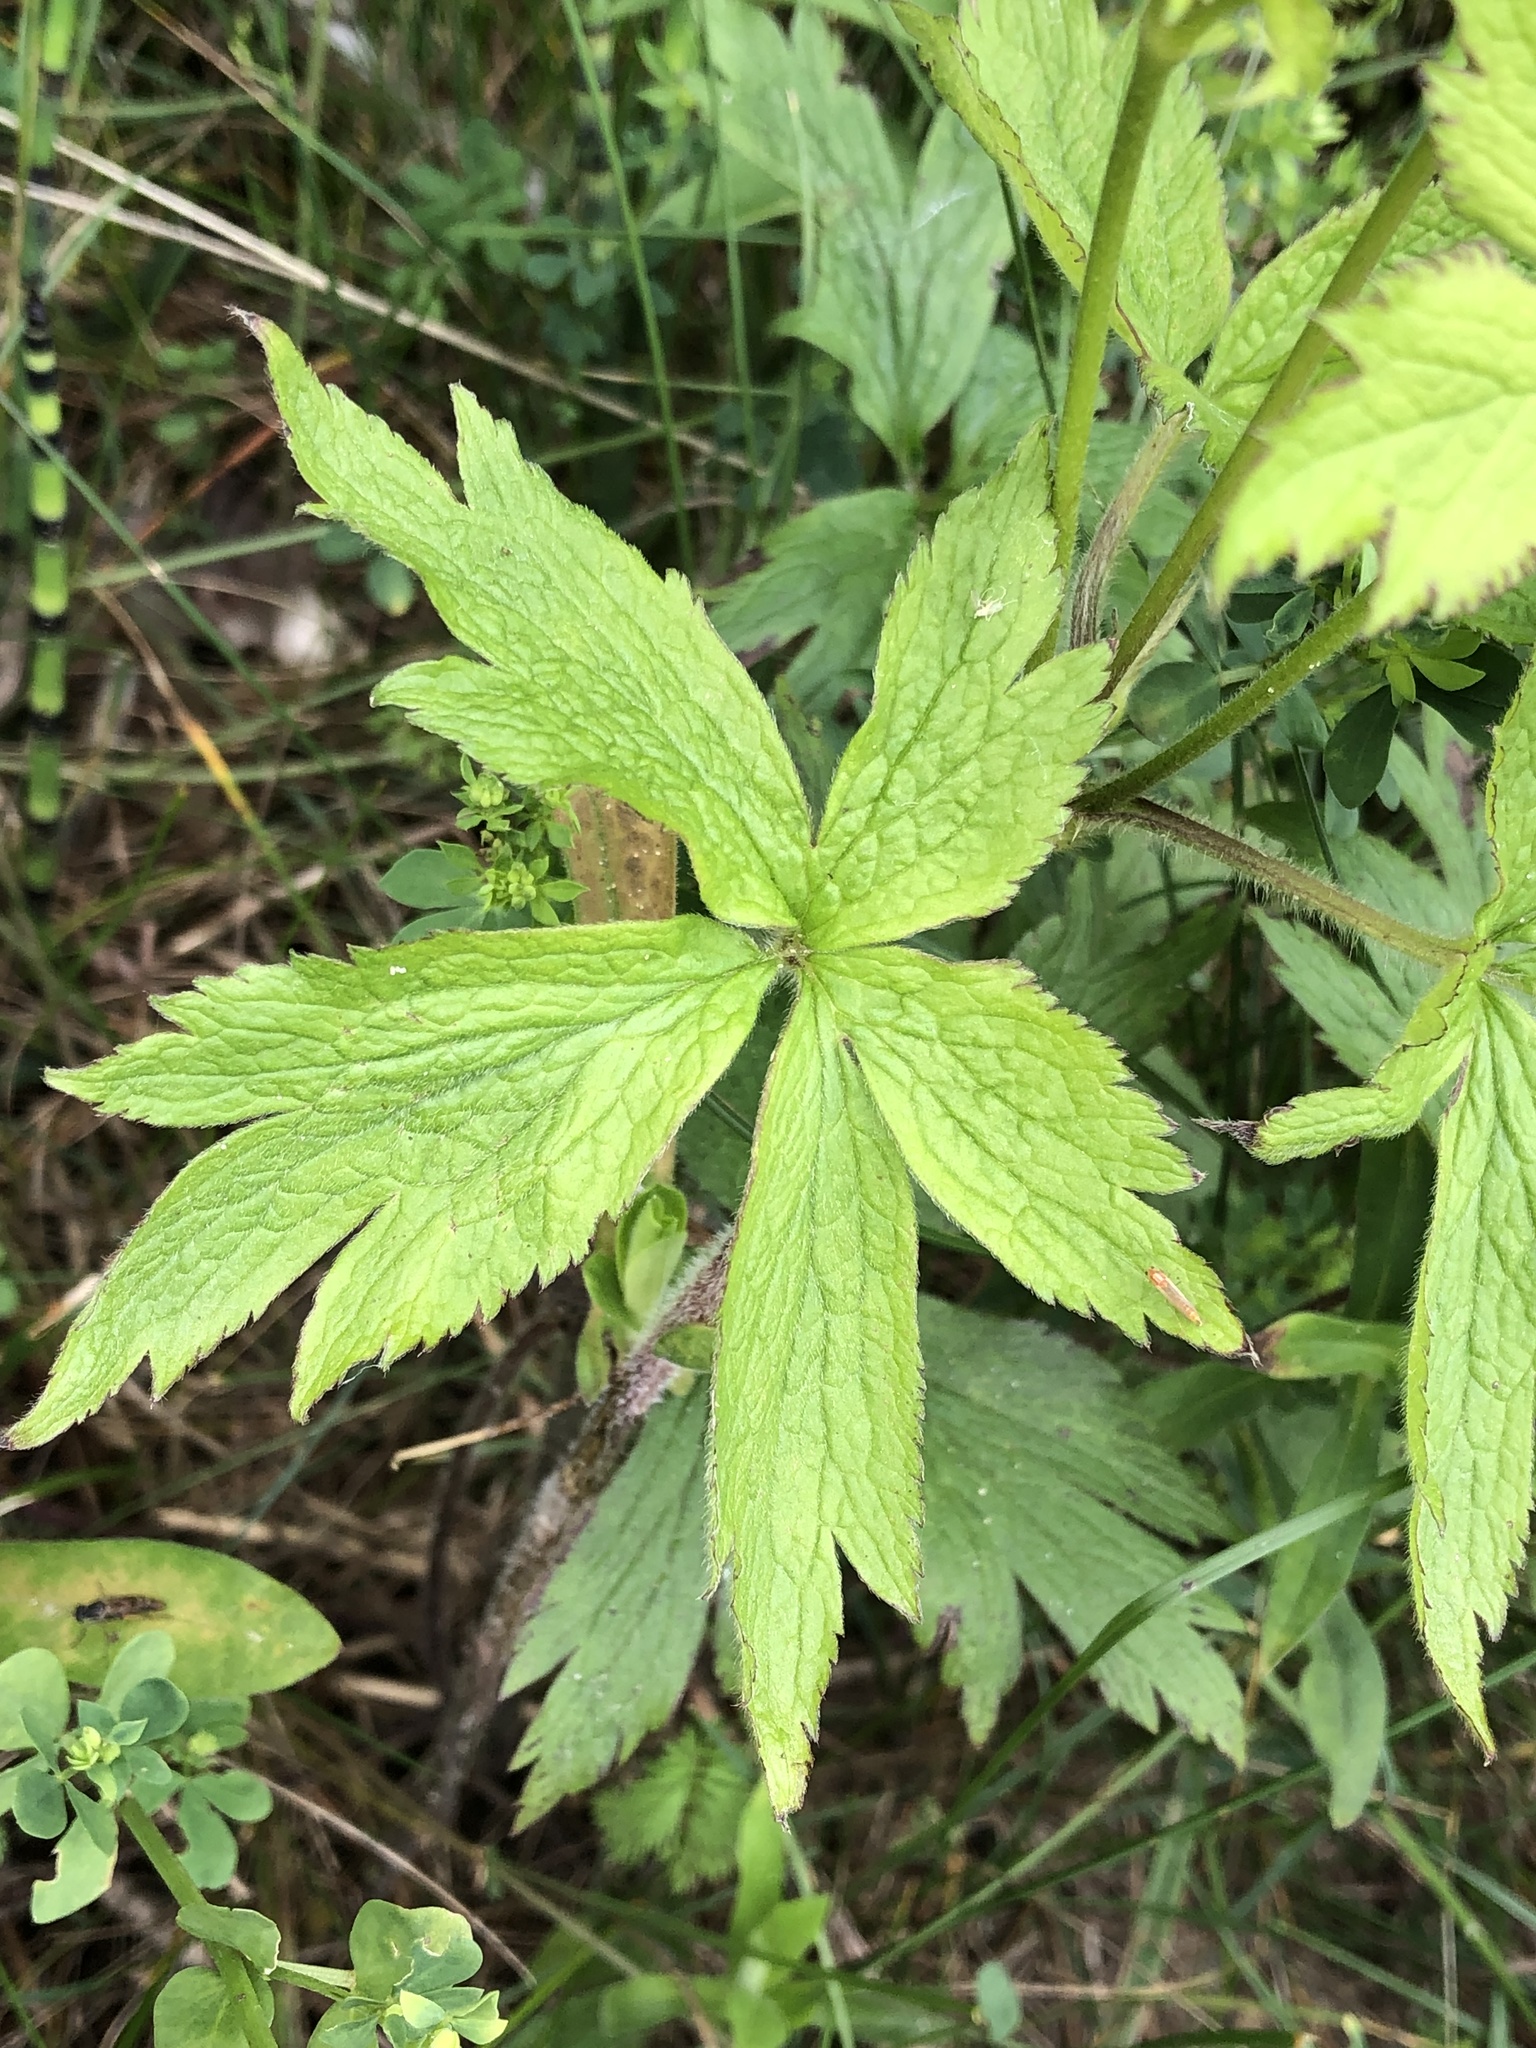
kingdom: Plantae
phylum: Tracheophyta
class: Magnoliopsida
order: Ranunculales
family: Ranunculaceae
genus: Anemonastrum
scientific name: Anemonastrum canadense
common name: Canada anemone
